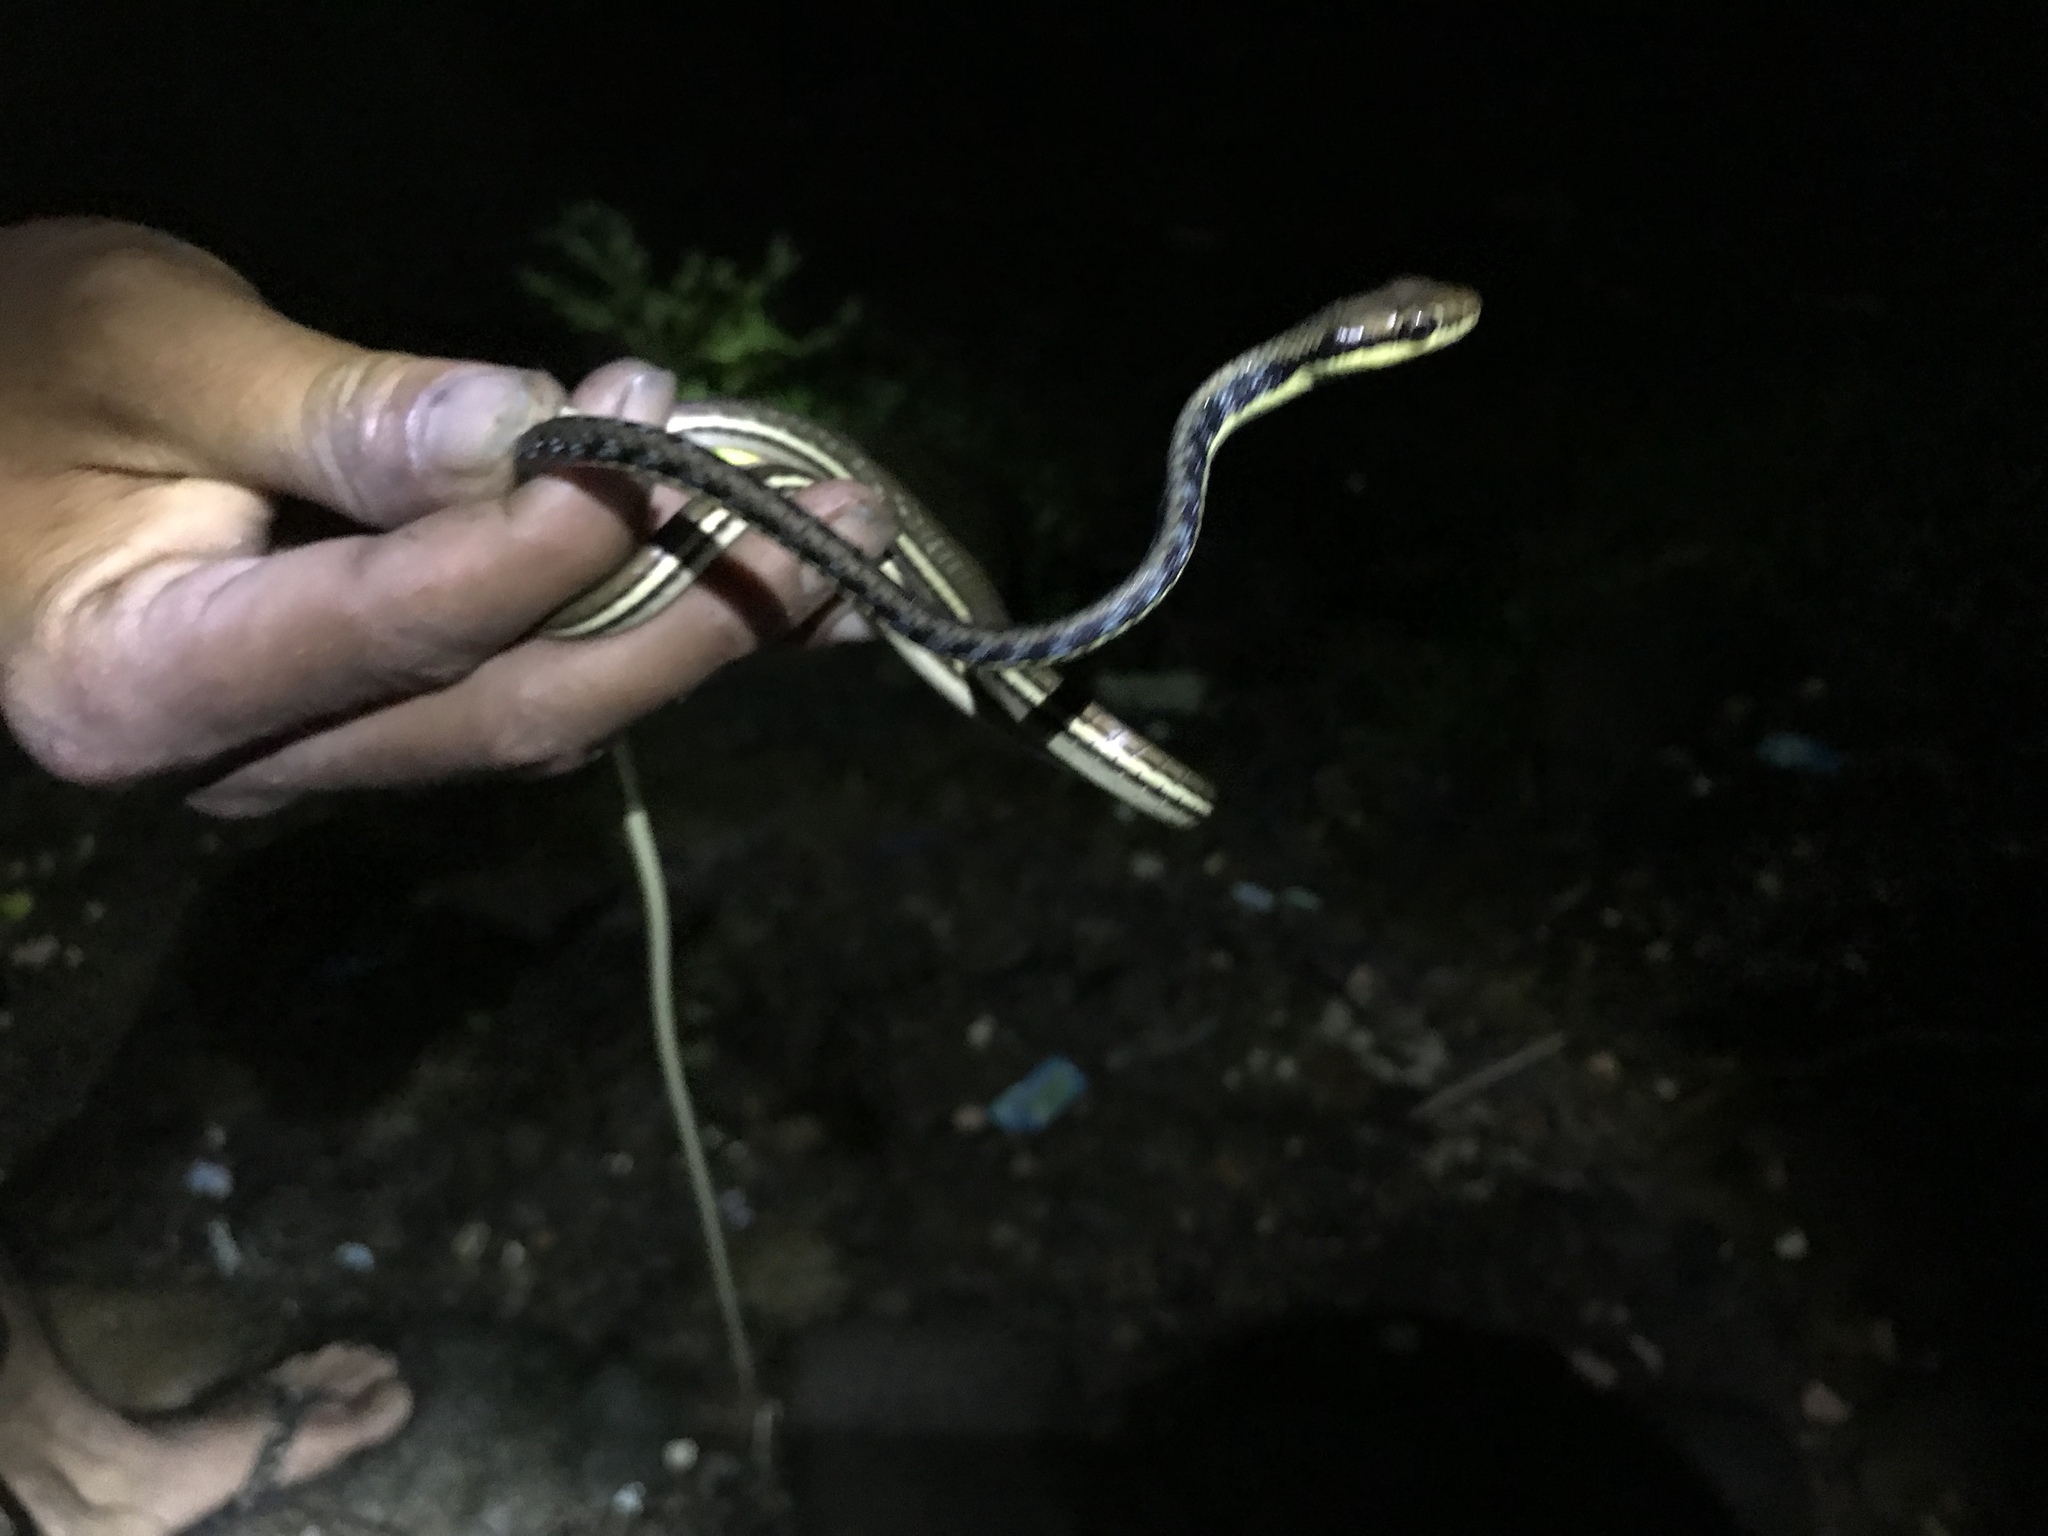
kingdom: Animalia
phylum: Chordata
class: Squamata
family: Colubridae
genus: Dendrelaphis
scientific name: Dendrelaphis pictus
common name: Indonesian bronze-back
